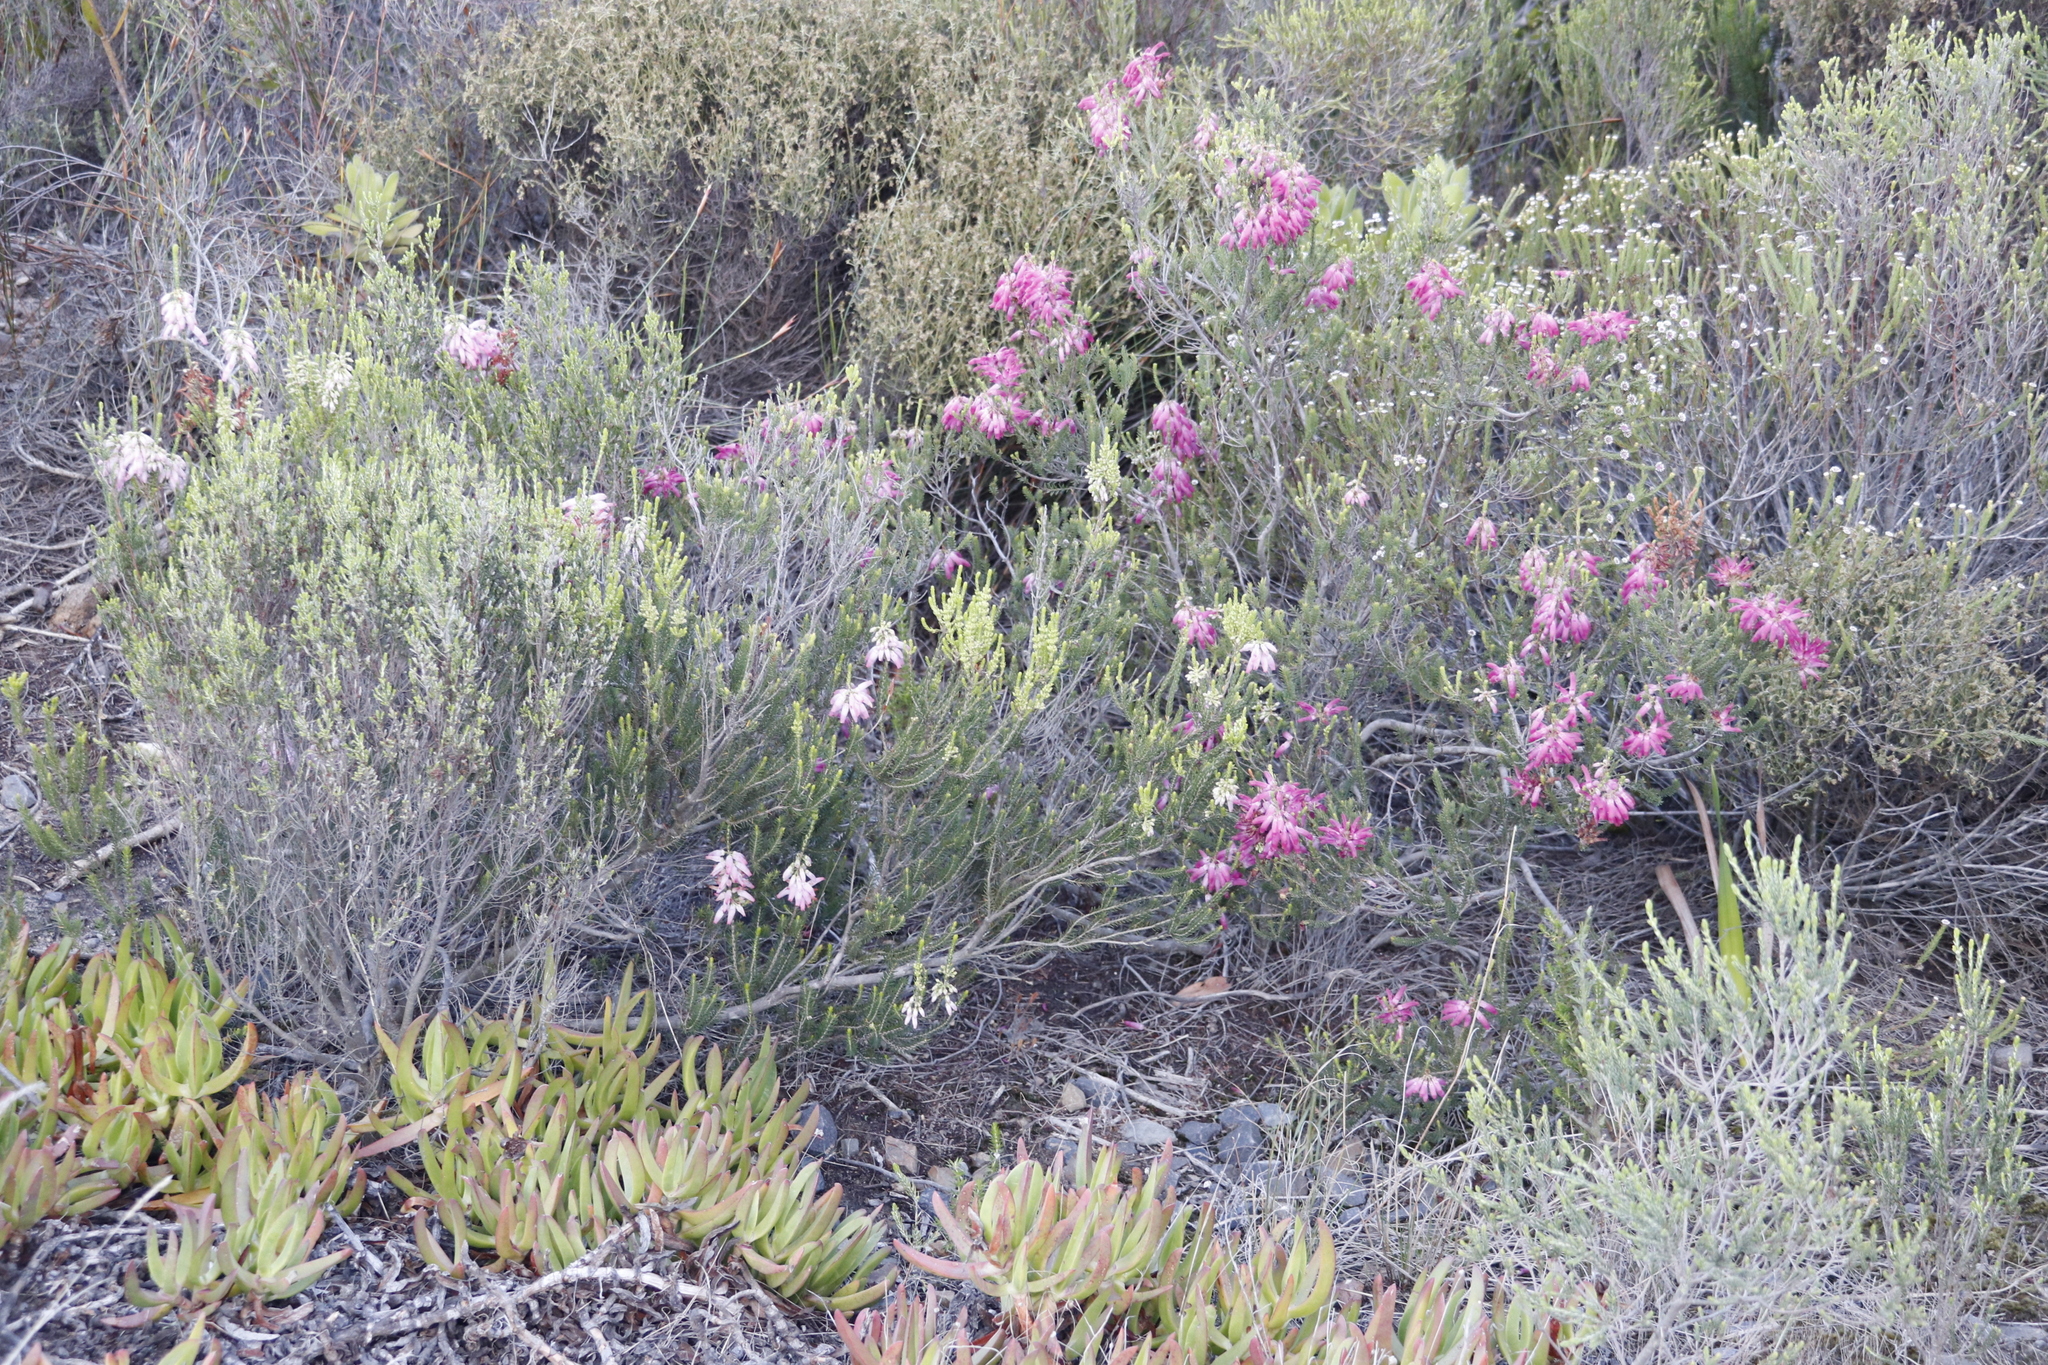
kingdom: Plantae
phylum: Tracheophyta
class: Magnoliopsida
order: Ericales
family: Ericaceae
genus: Erica
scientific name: Erica mammosa
